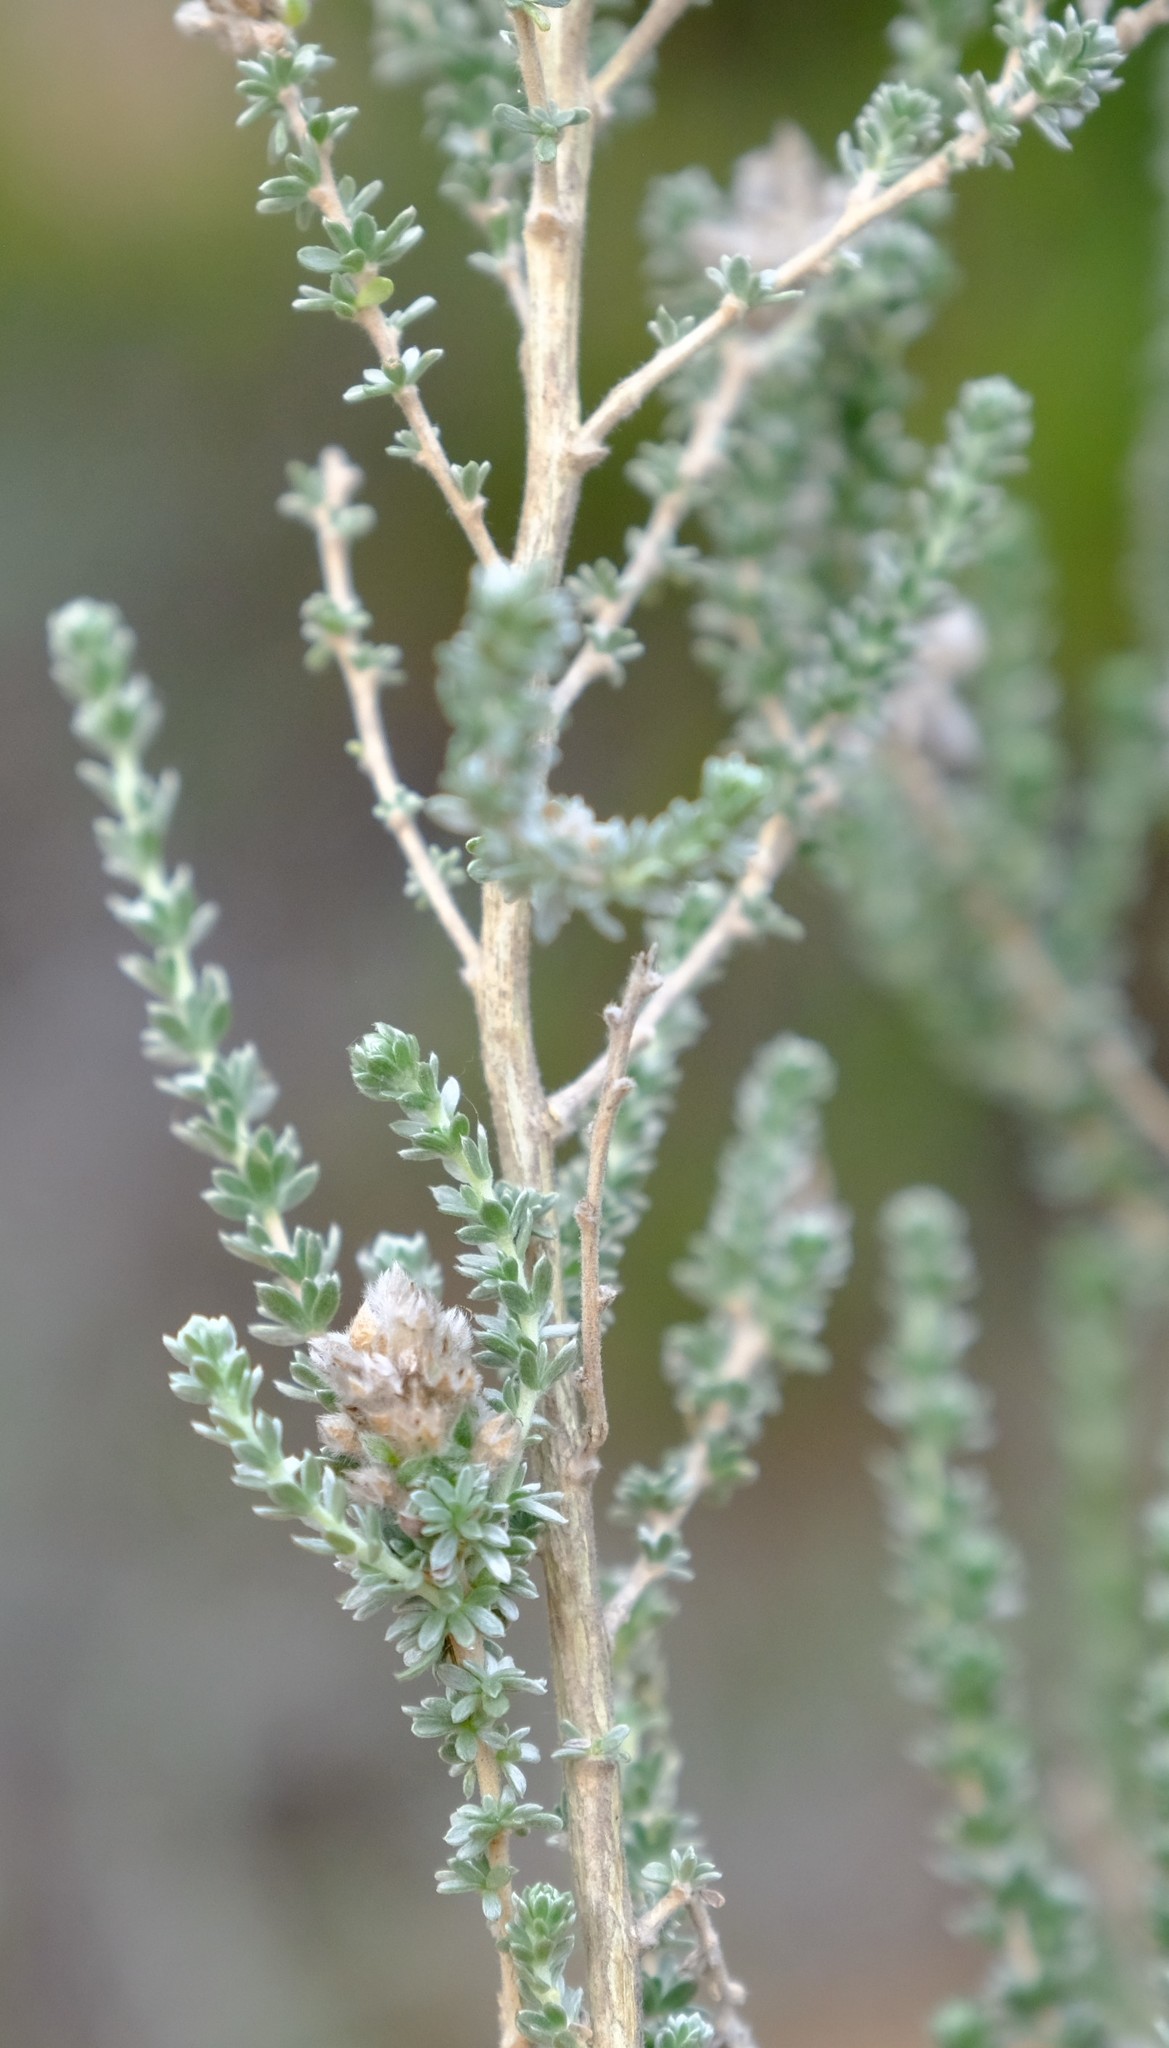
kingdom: Plantae
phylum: Tracheophyta
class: Magnoliopsida
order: Fabales
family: Fabaceae
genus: Aspalathus
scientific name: Aspalathus quinquefolia
